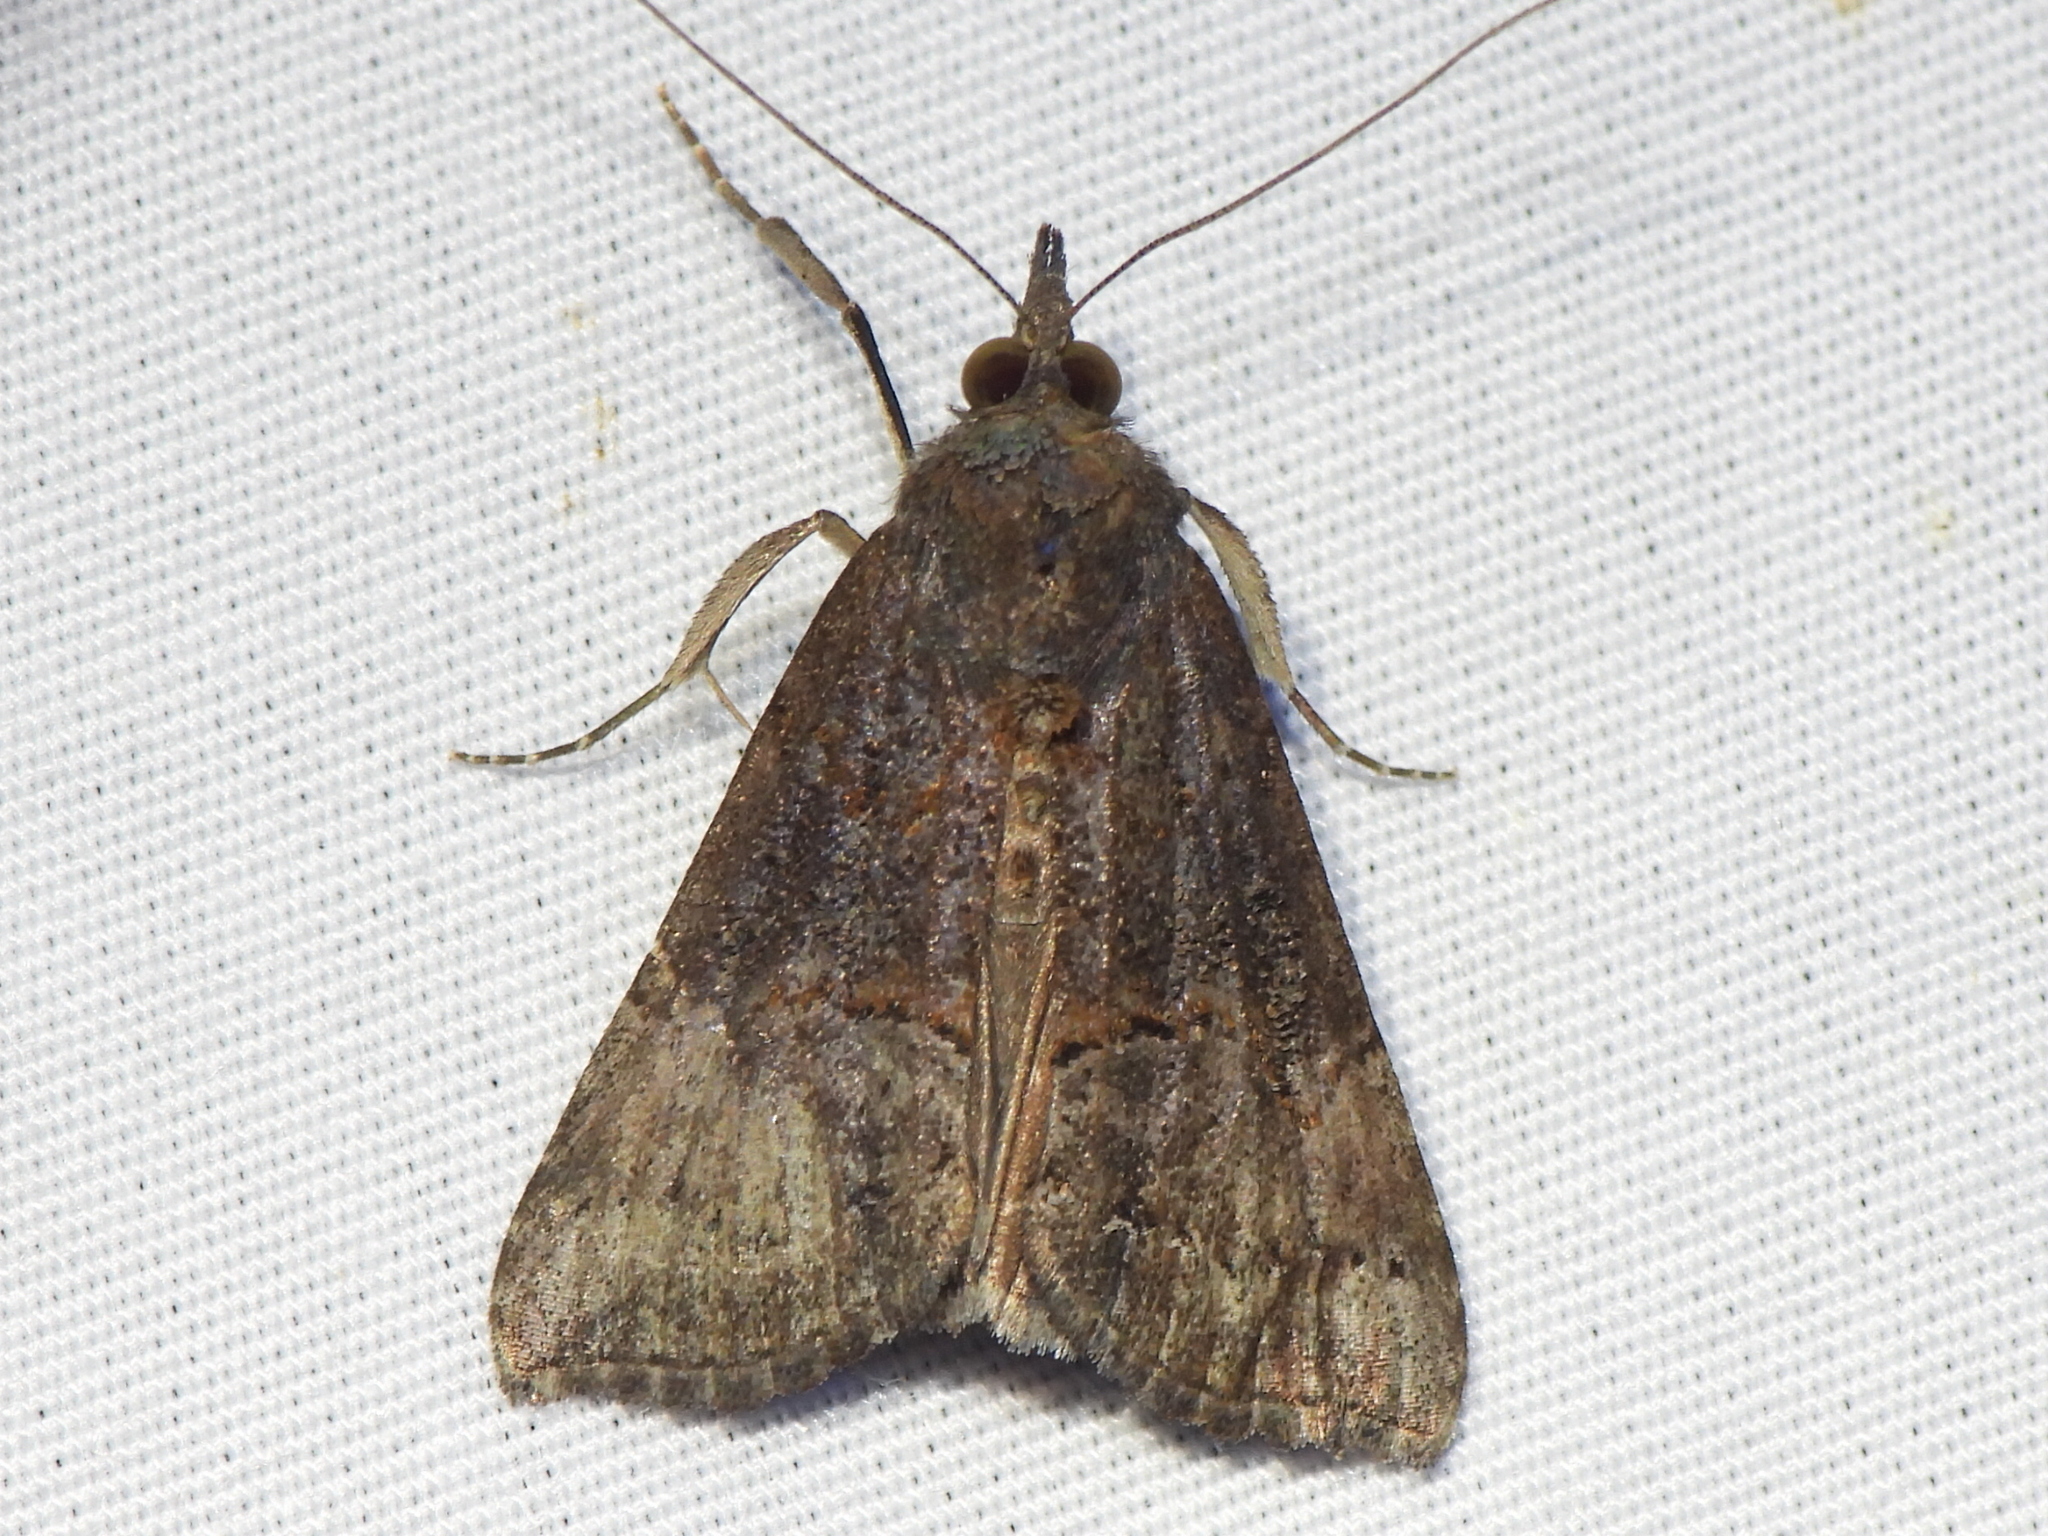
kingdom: Animalia
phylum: Arthropoda
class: Insecta
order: Lepidoptera
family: Erebidae
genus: Hypena
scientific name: Hypena scabra
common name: Green cloverworm
